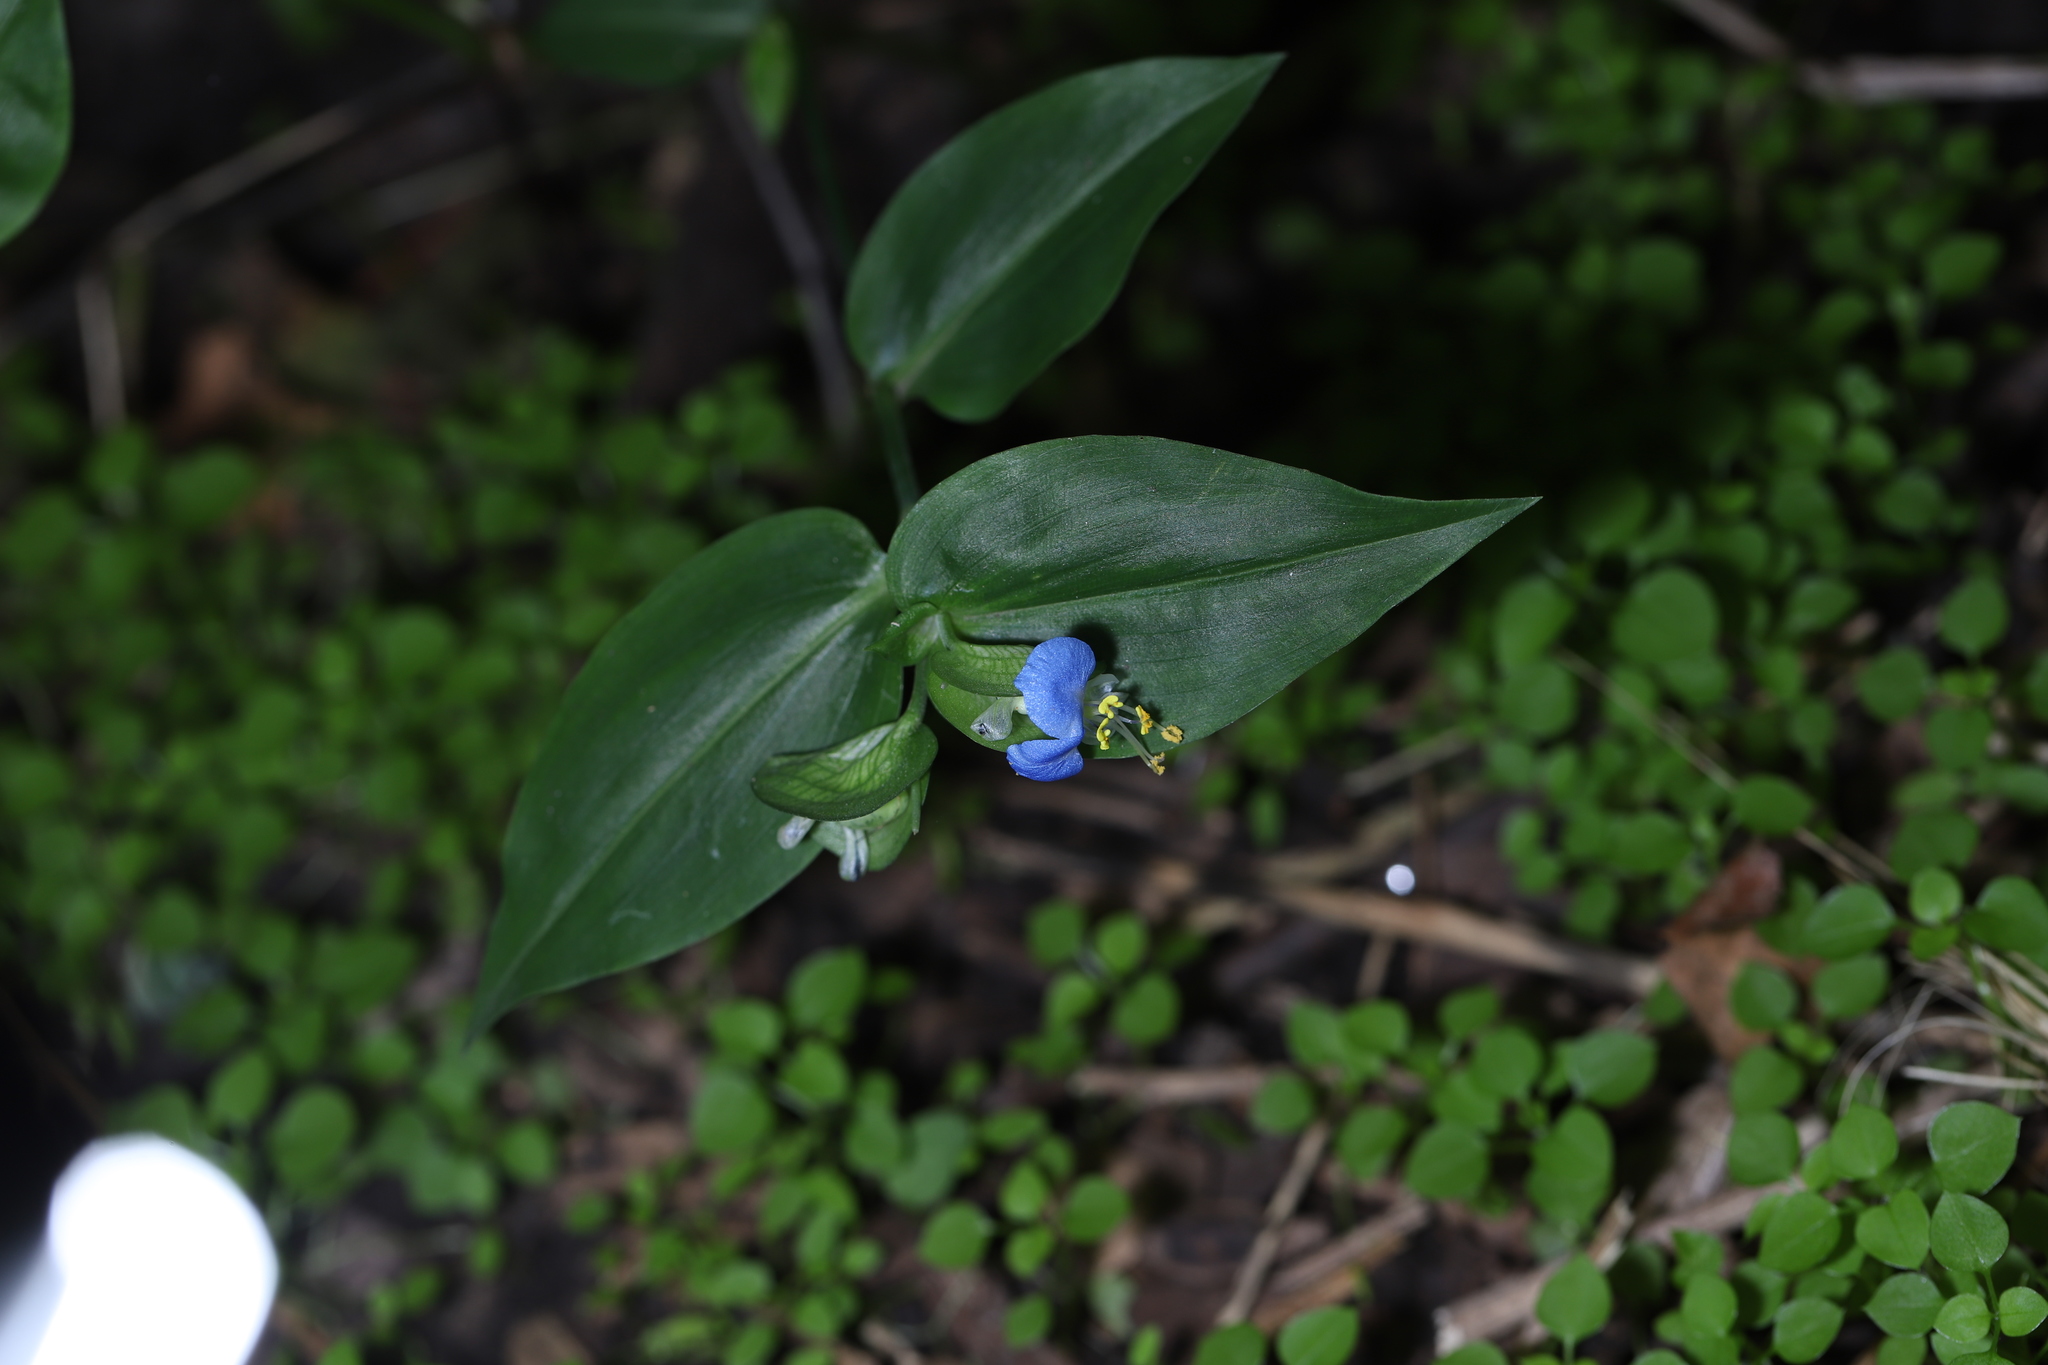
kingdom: Plantae
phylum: Tracheophyta
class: Liliopsida
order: Commelinales
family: Commelinaceae
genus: Commelina
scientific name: Commelina communis
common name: Asiatic dayflower
